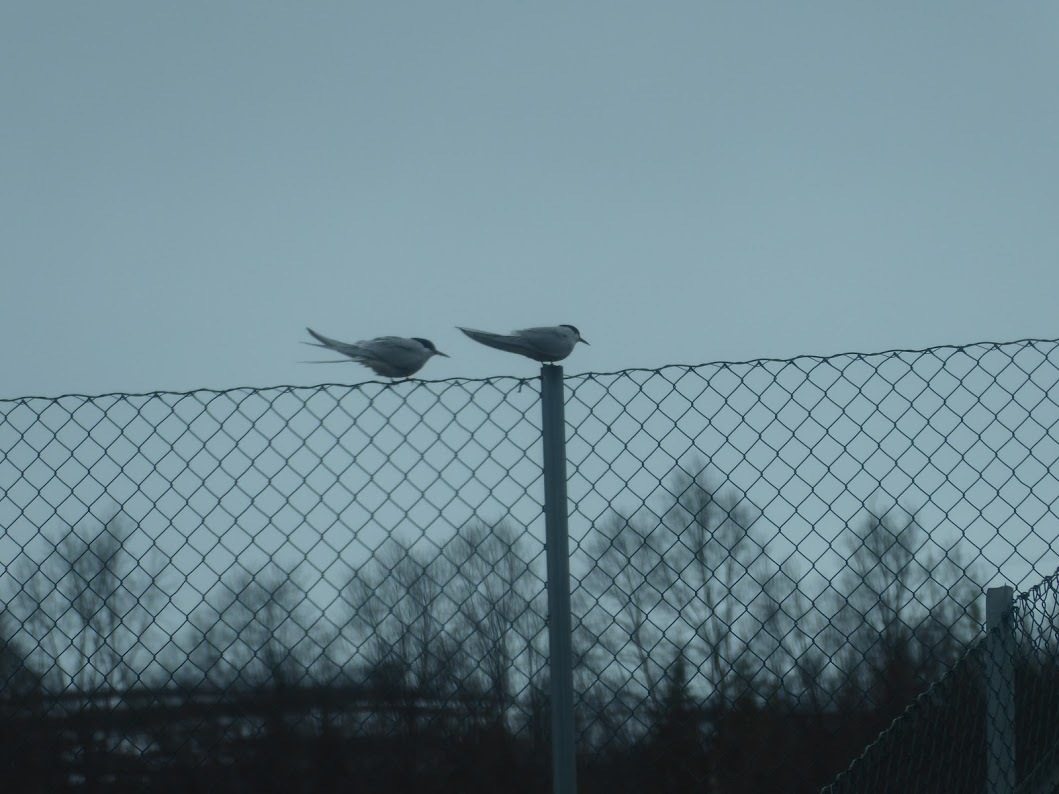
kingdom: Animalia
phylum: Chordata
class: Aves
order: Charadriiformes
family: Laridae
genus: Sterna
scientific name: Sterna paradisaea
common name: Arctic tern
